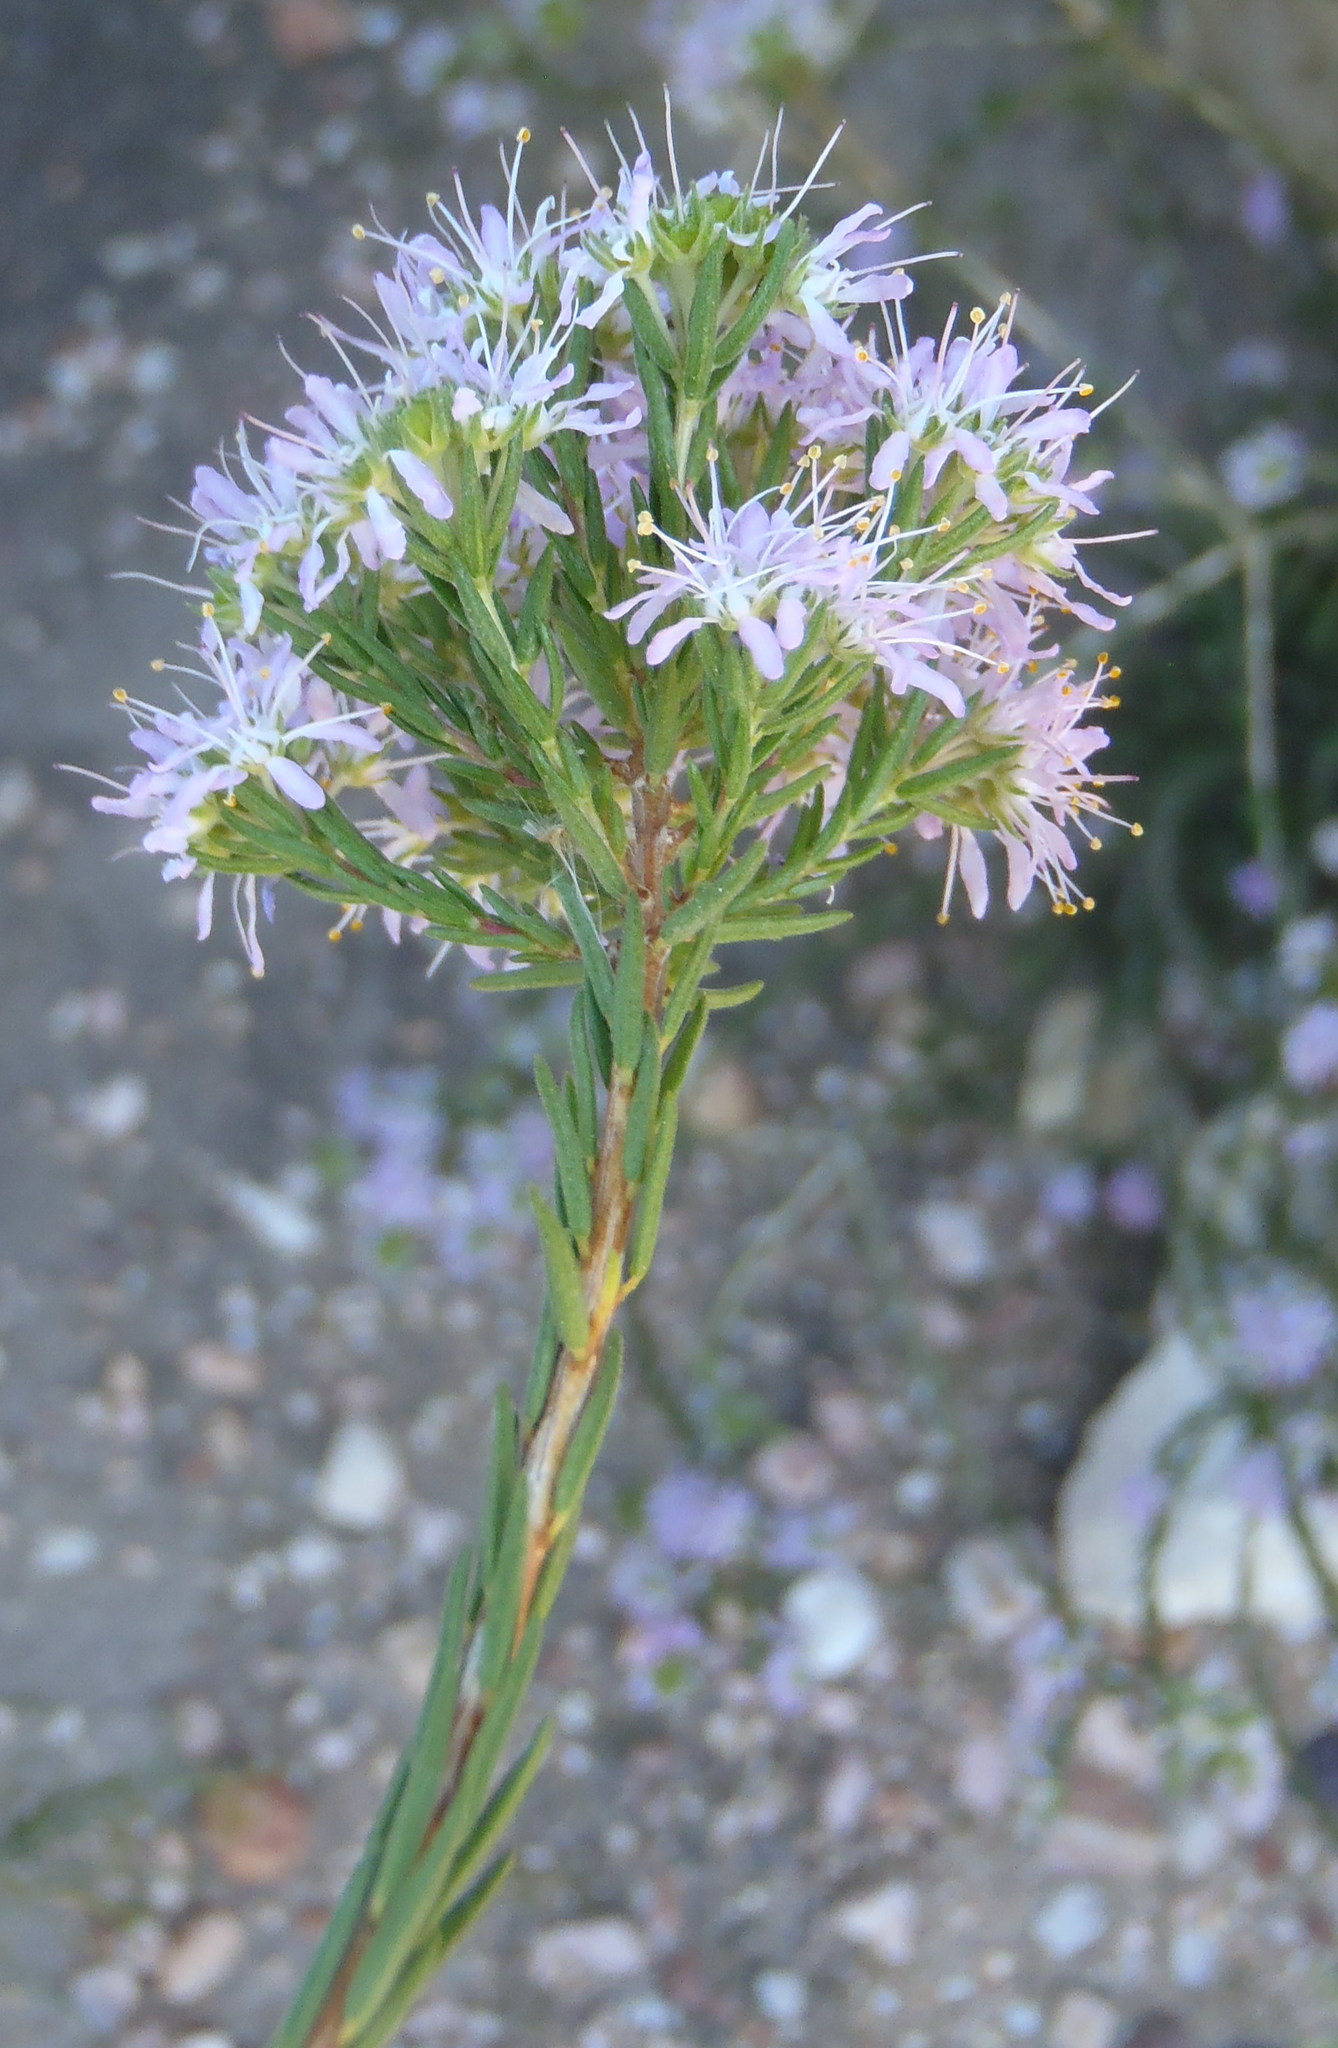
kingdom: Plantae
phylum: Tracheophyta
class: Magnoliopsida
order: Sapindales
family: Rutaceae
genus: Agathosma
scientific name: Agathosma
